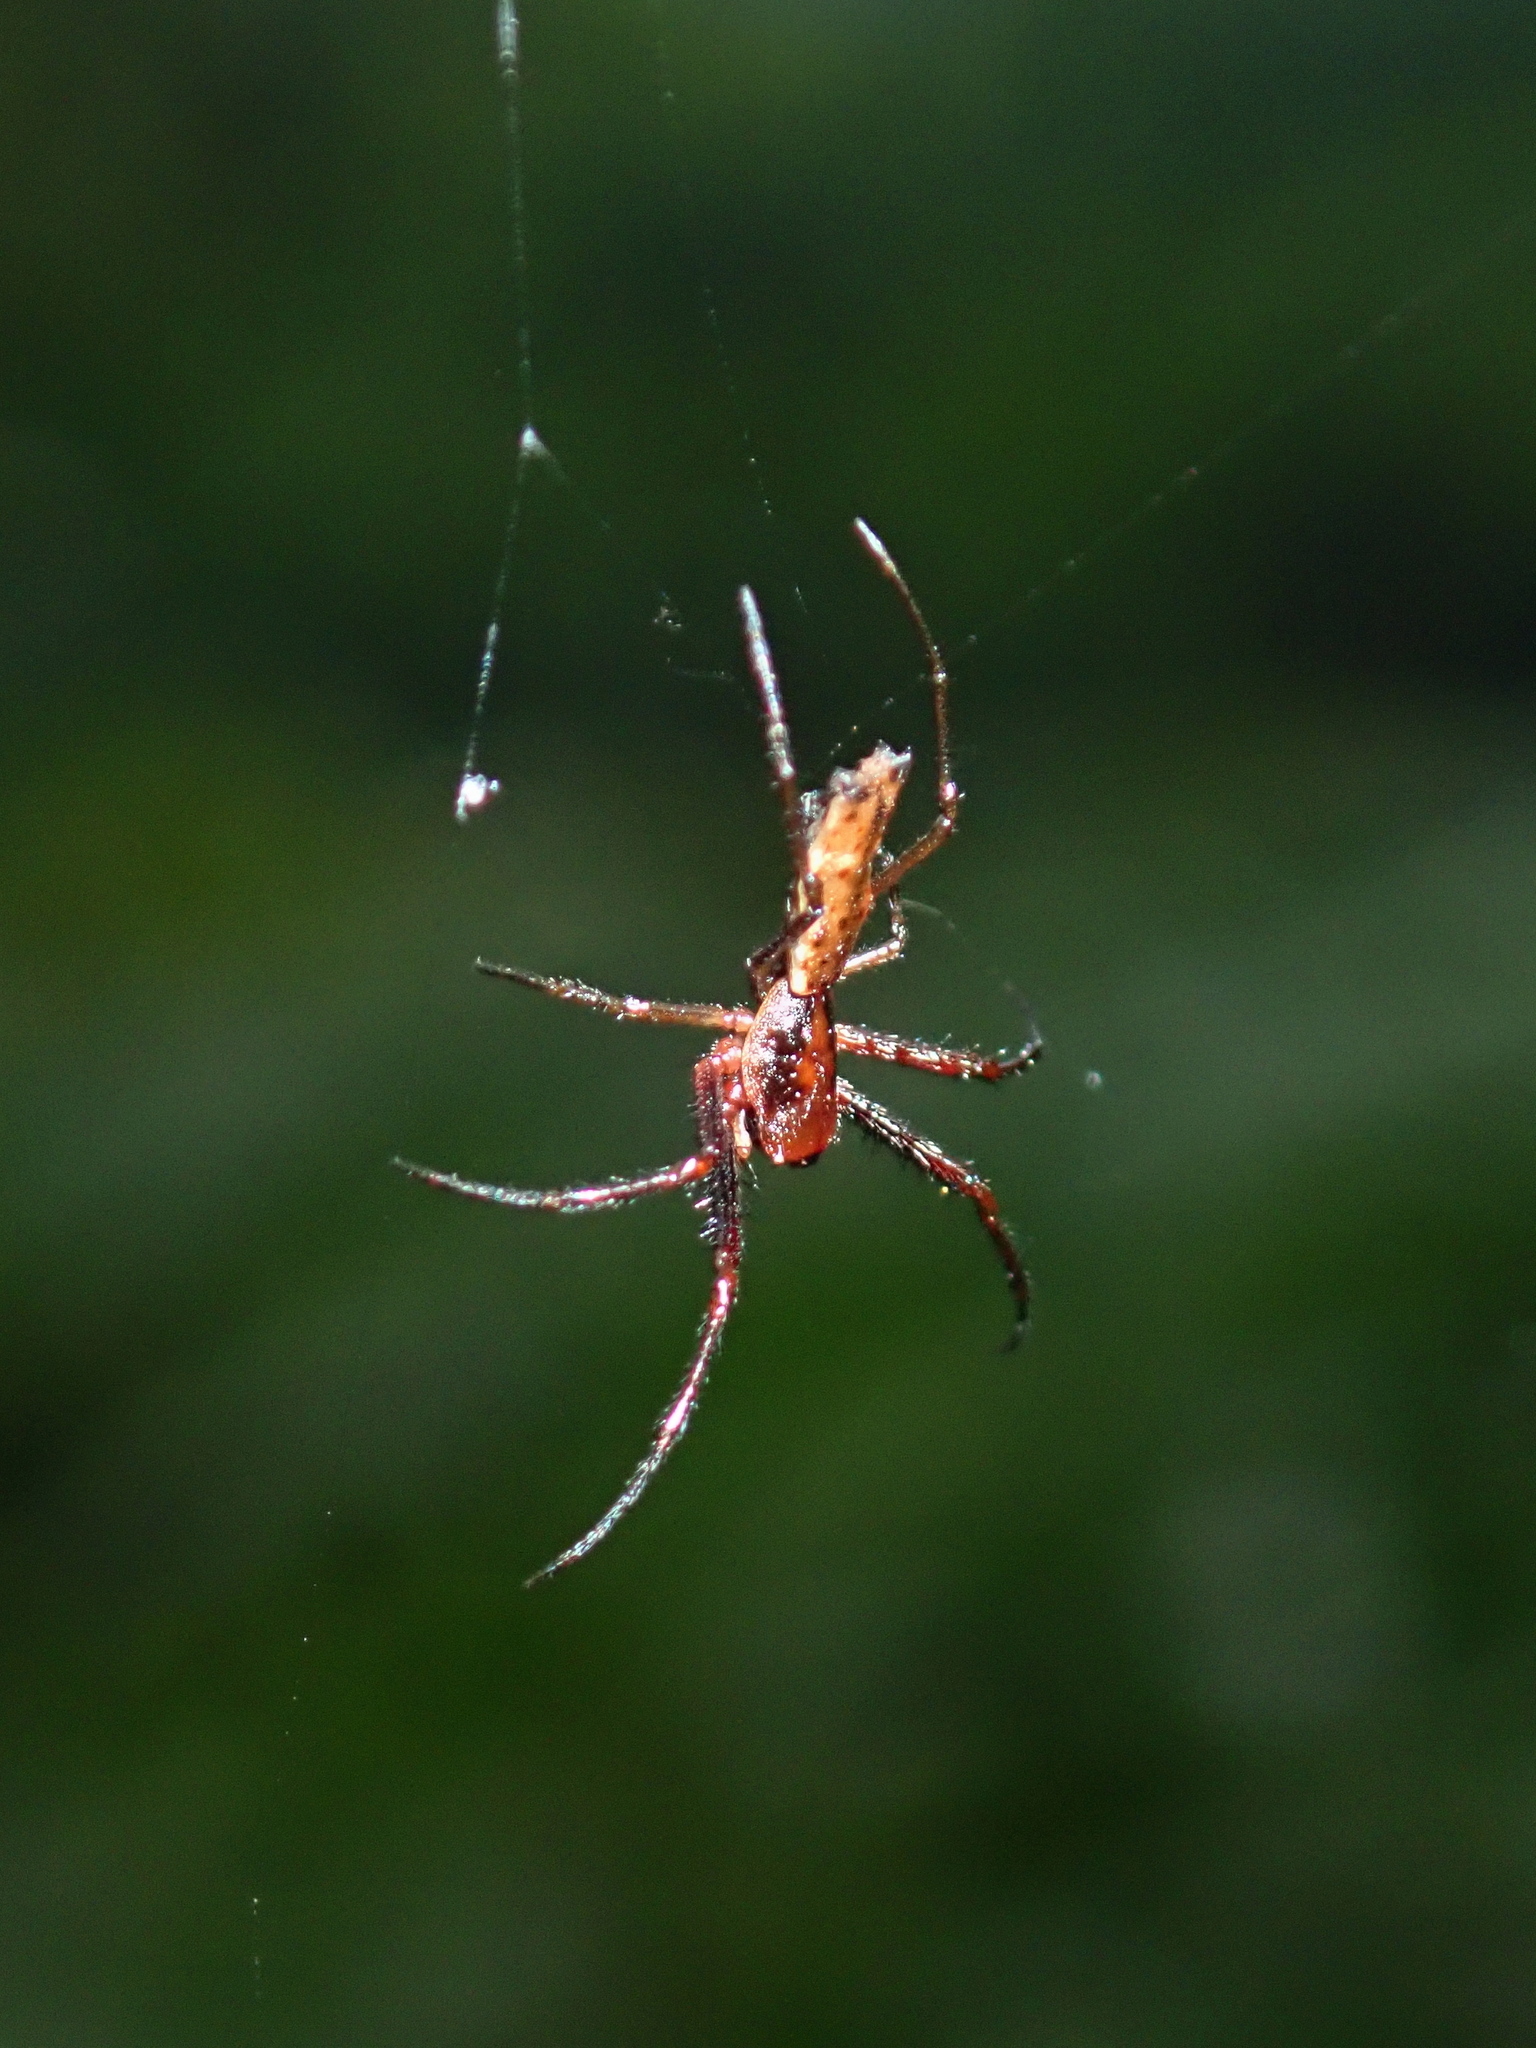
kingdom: Animalia
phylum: Arthropoda
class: Arachnida
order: Araneae
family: Araneidae
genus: Micrathena
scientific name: Micrathena nigrichelis
